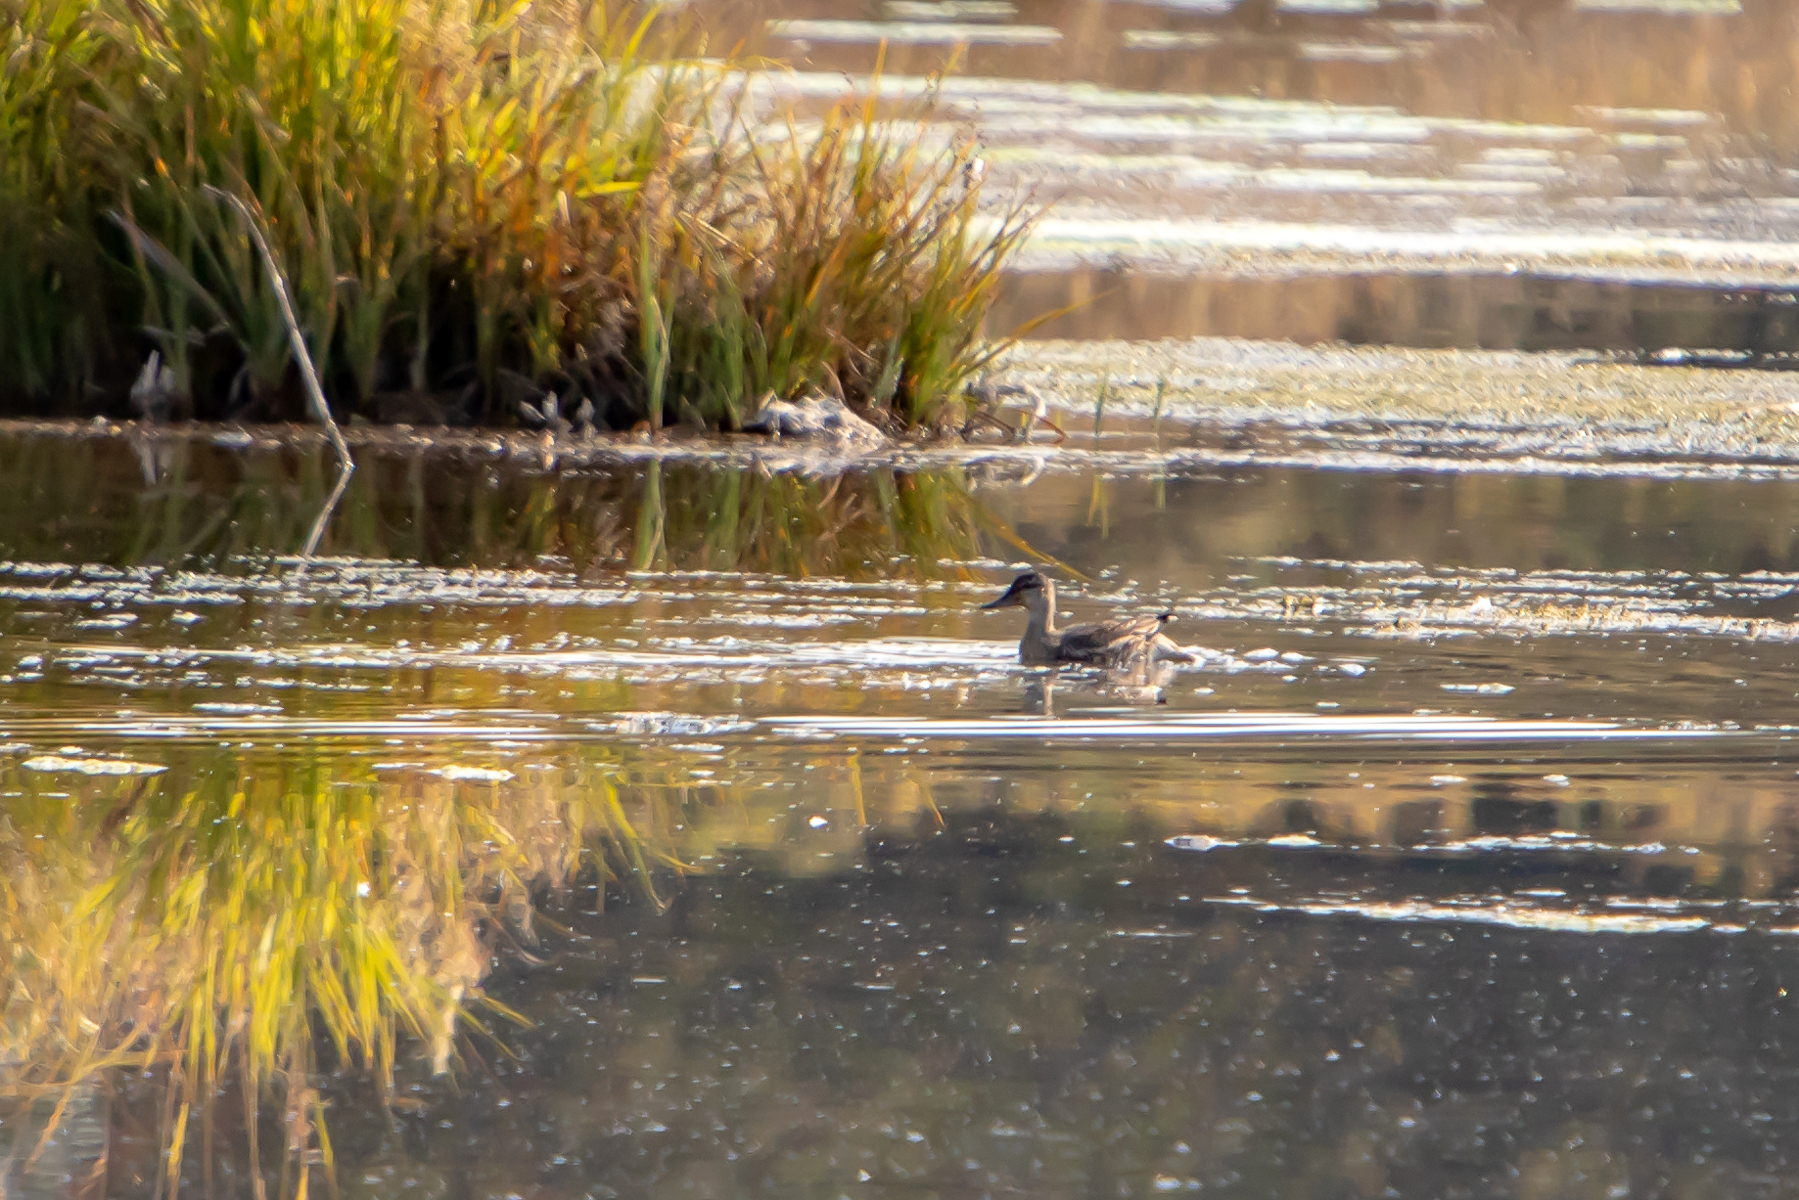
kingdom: Animalia
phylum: Chordata
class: Aves
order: Anseriformes
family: Anatidae
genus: Anas
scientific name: Anas platyrhynchos
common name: Mallard
